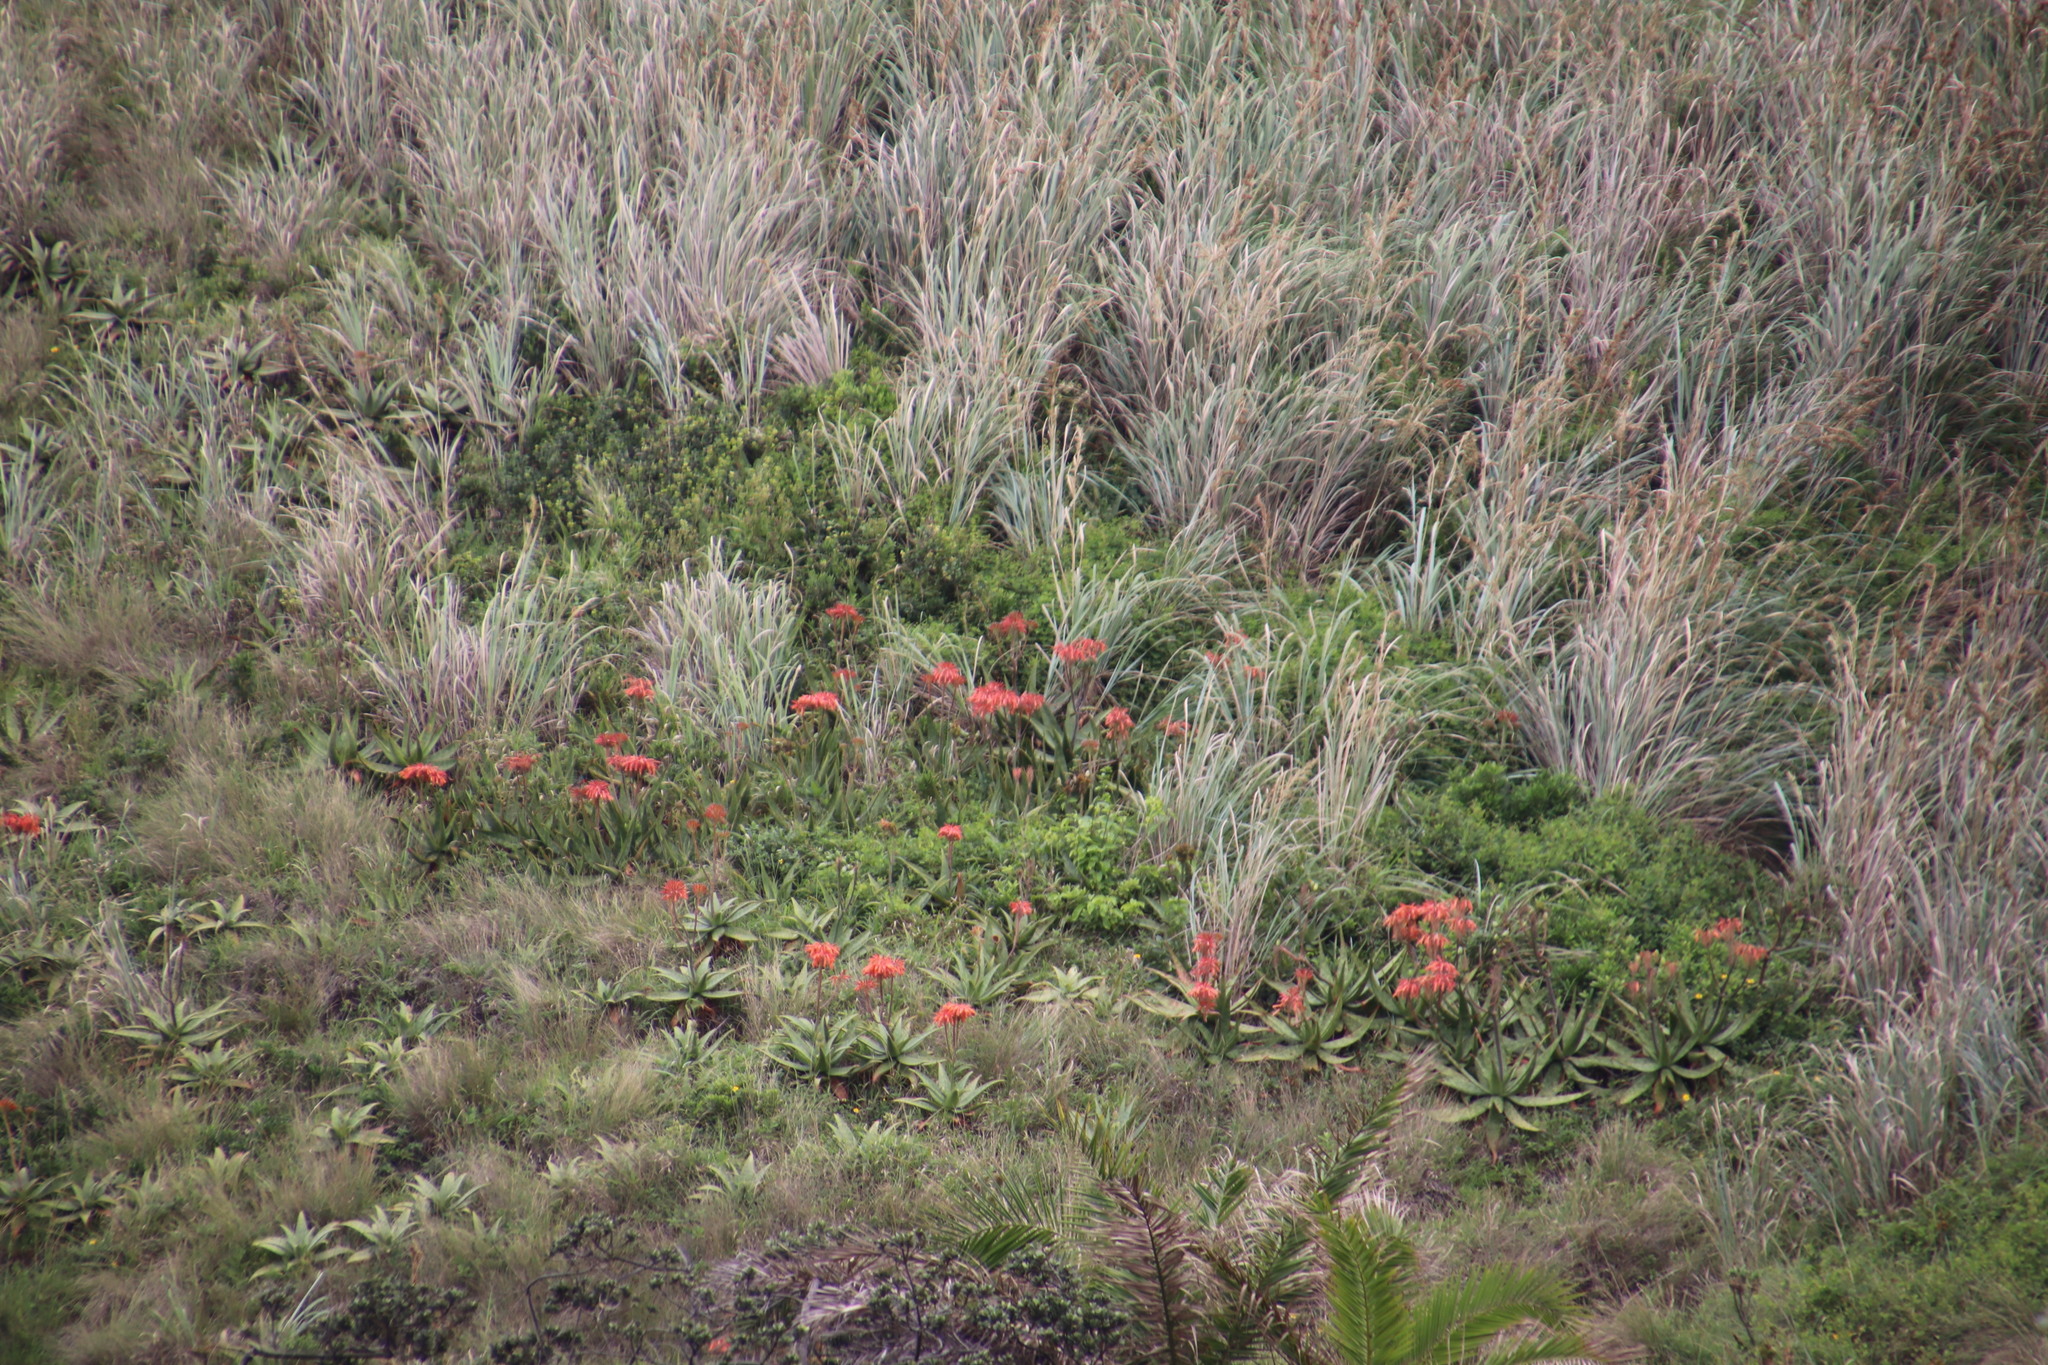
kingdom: Plantae
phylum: Tracheophyta
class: Liliopsida
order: Asparagales
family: Asphodelaceae
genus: Aloe
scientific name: Aloe maculata
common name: Broadleaf aloe
